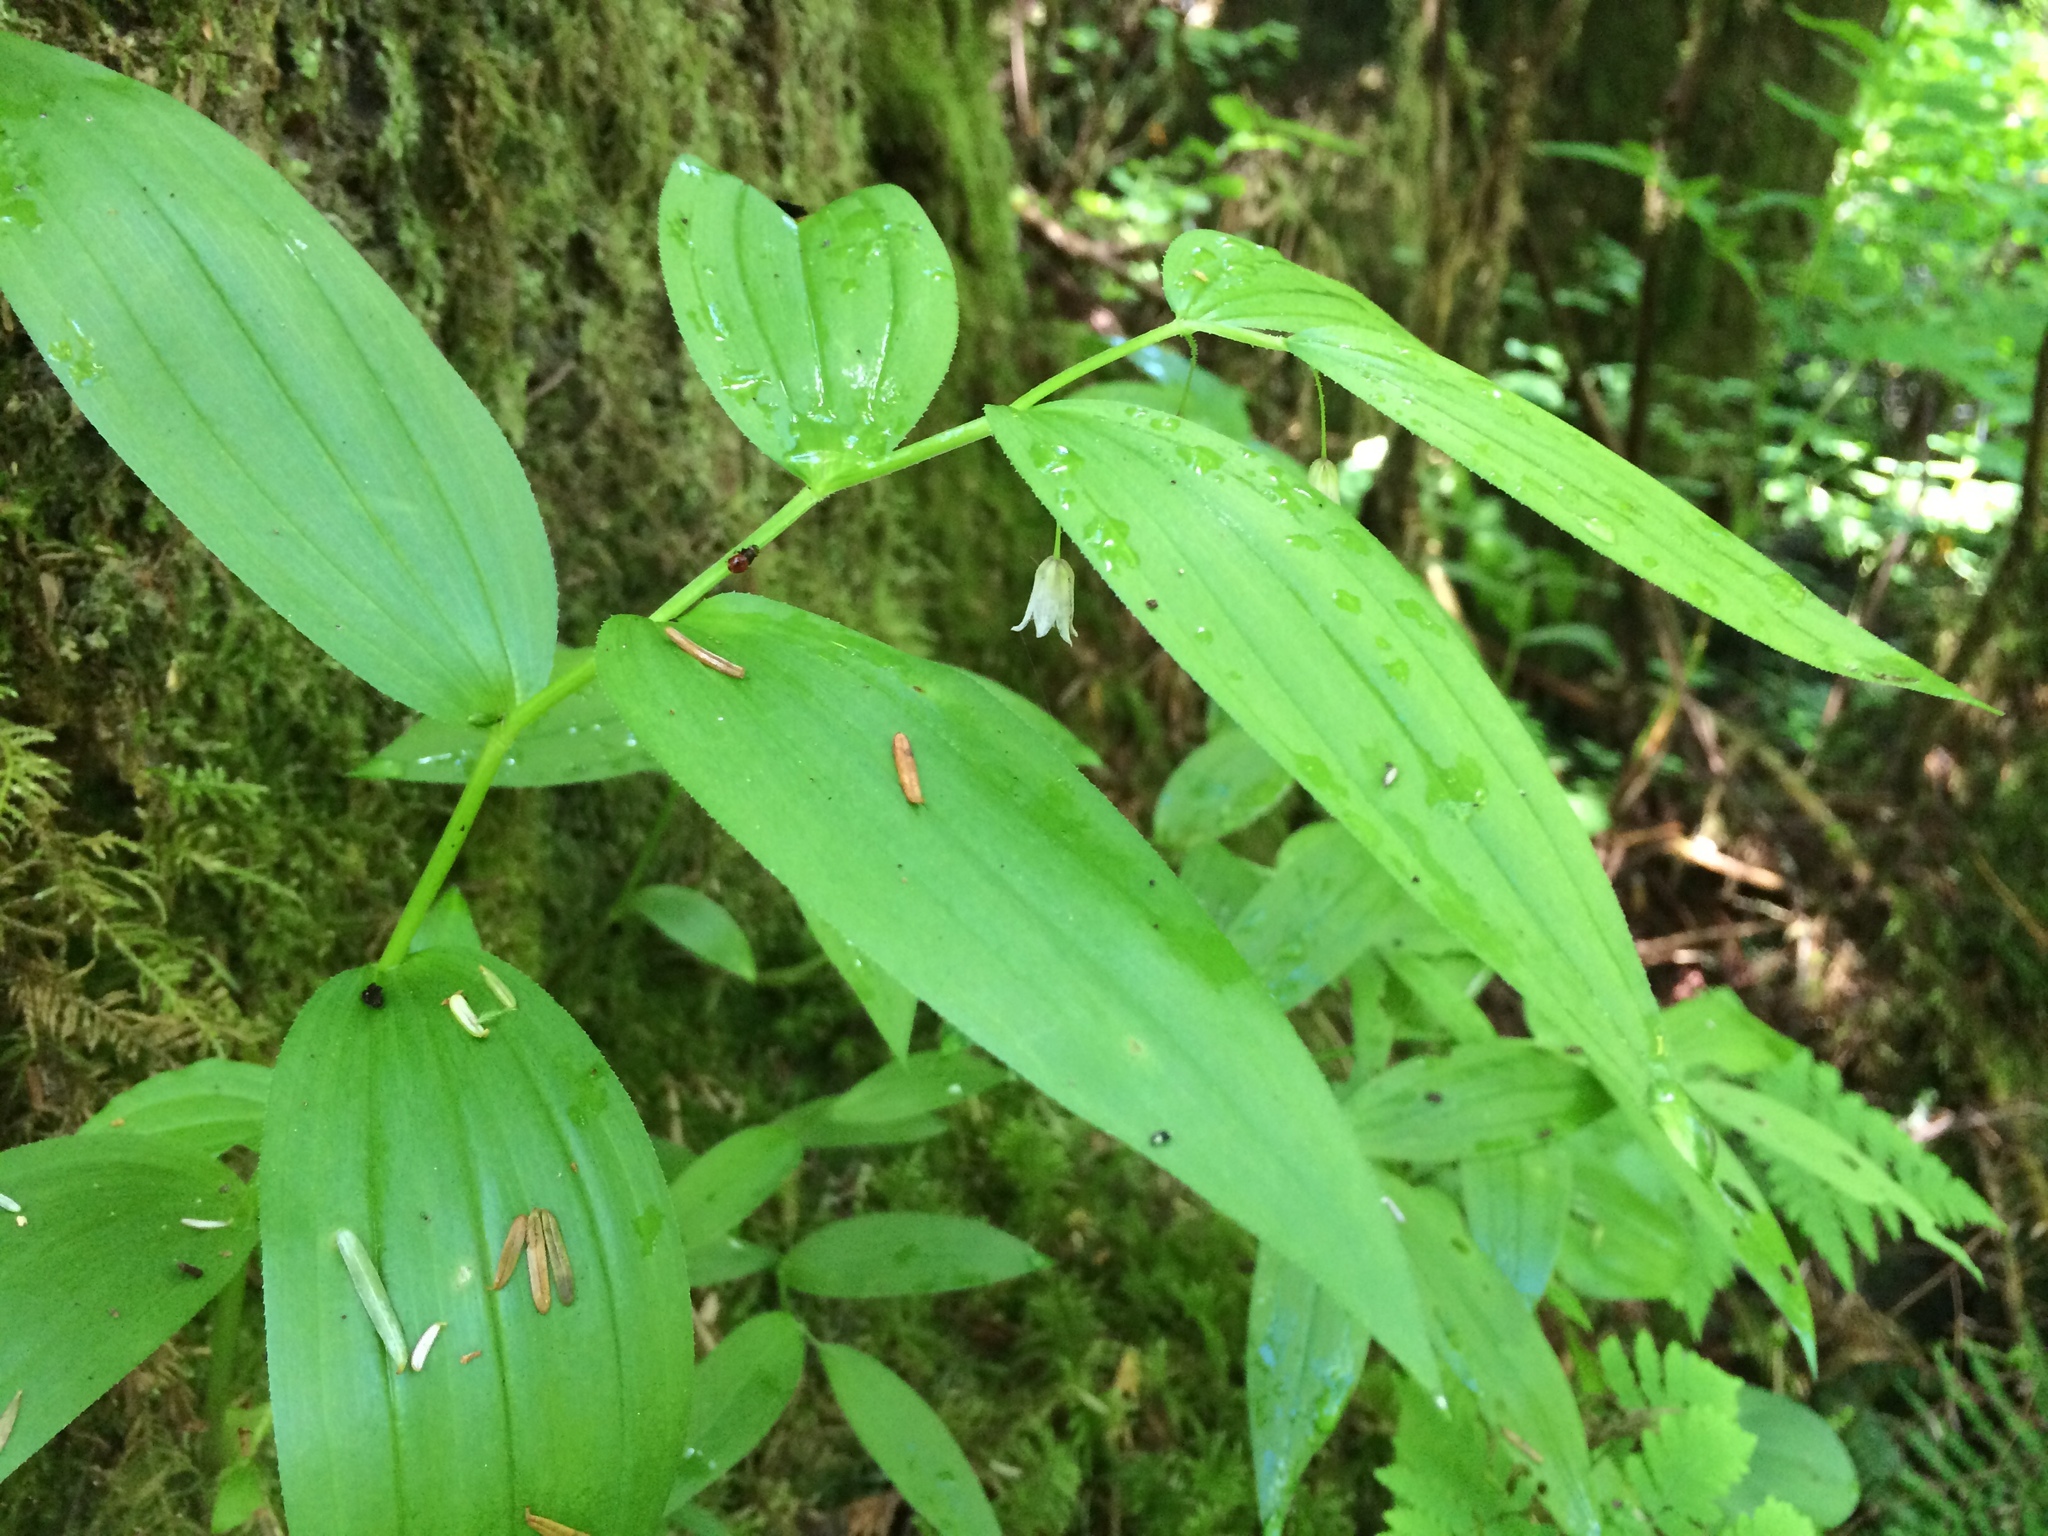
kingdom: Plantae
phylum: Tracheophyta
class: Liliopsida
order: Liliales
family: Liliaceae
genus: Streptopus
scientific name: Streptopus lanceolatus
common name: Rose mandarin
